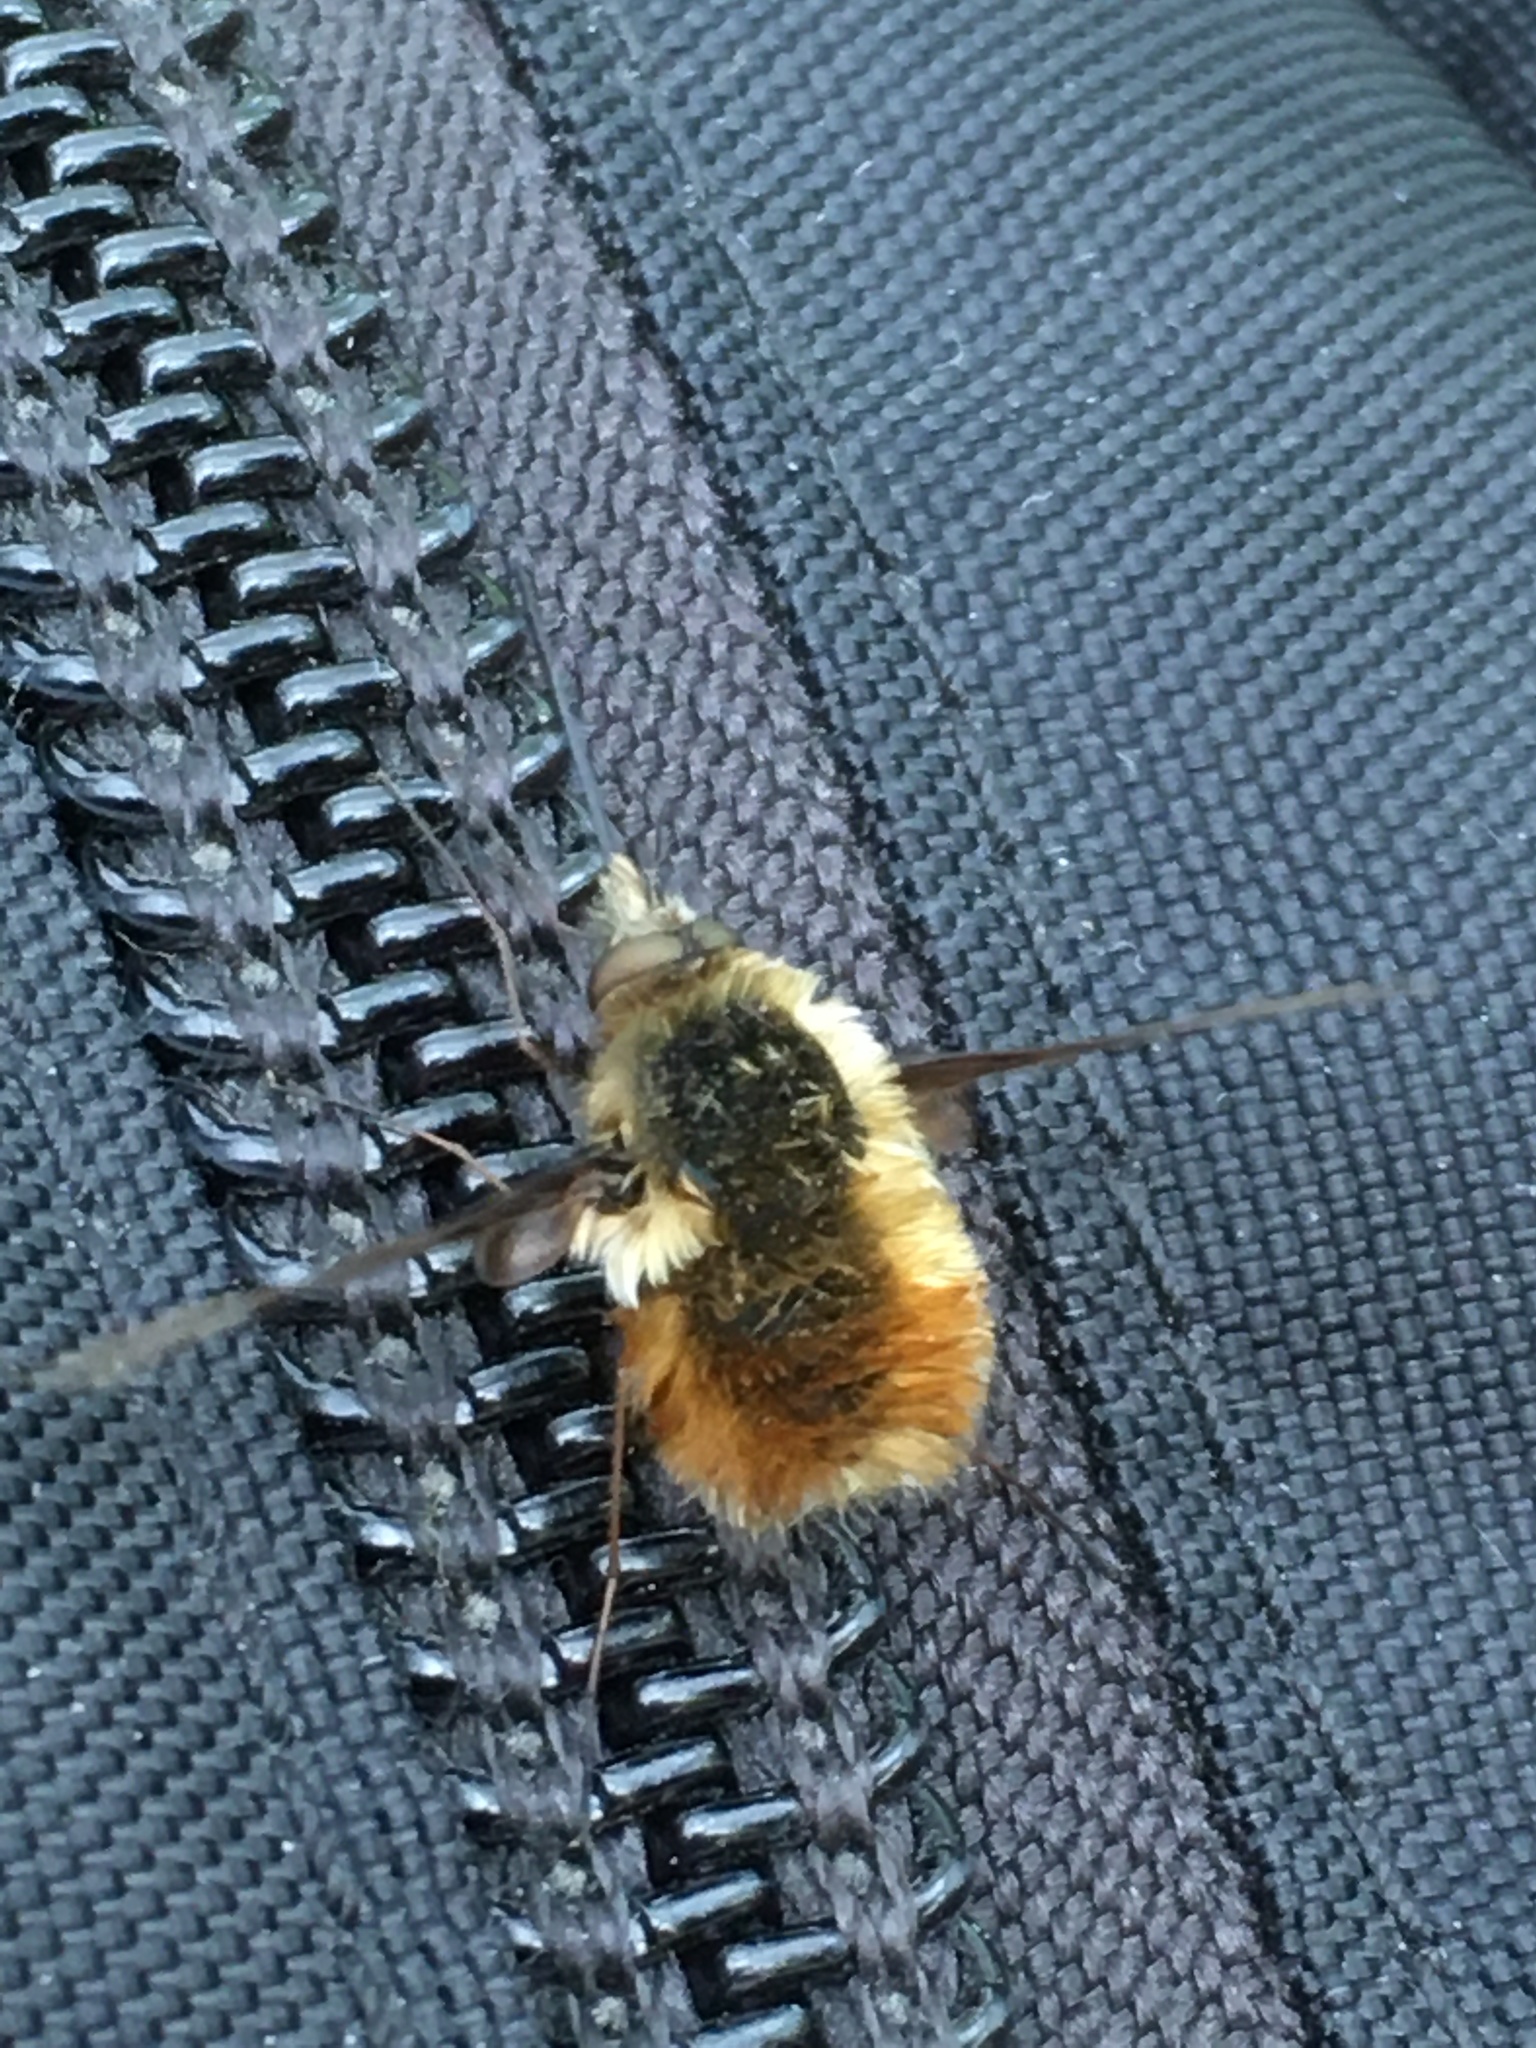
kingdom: Animalia
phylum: Arthropoda
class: Insecta
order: Diptera
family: Bombyliidae
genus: Bombylius
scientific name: Bombylius major
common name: Bee fly
